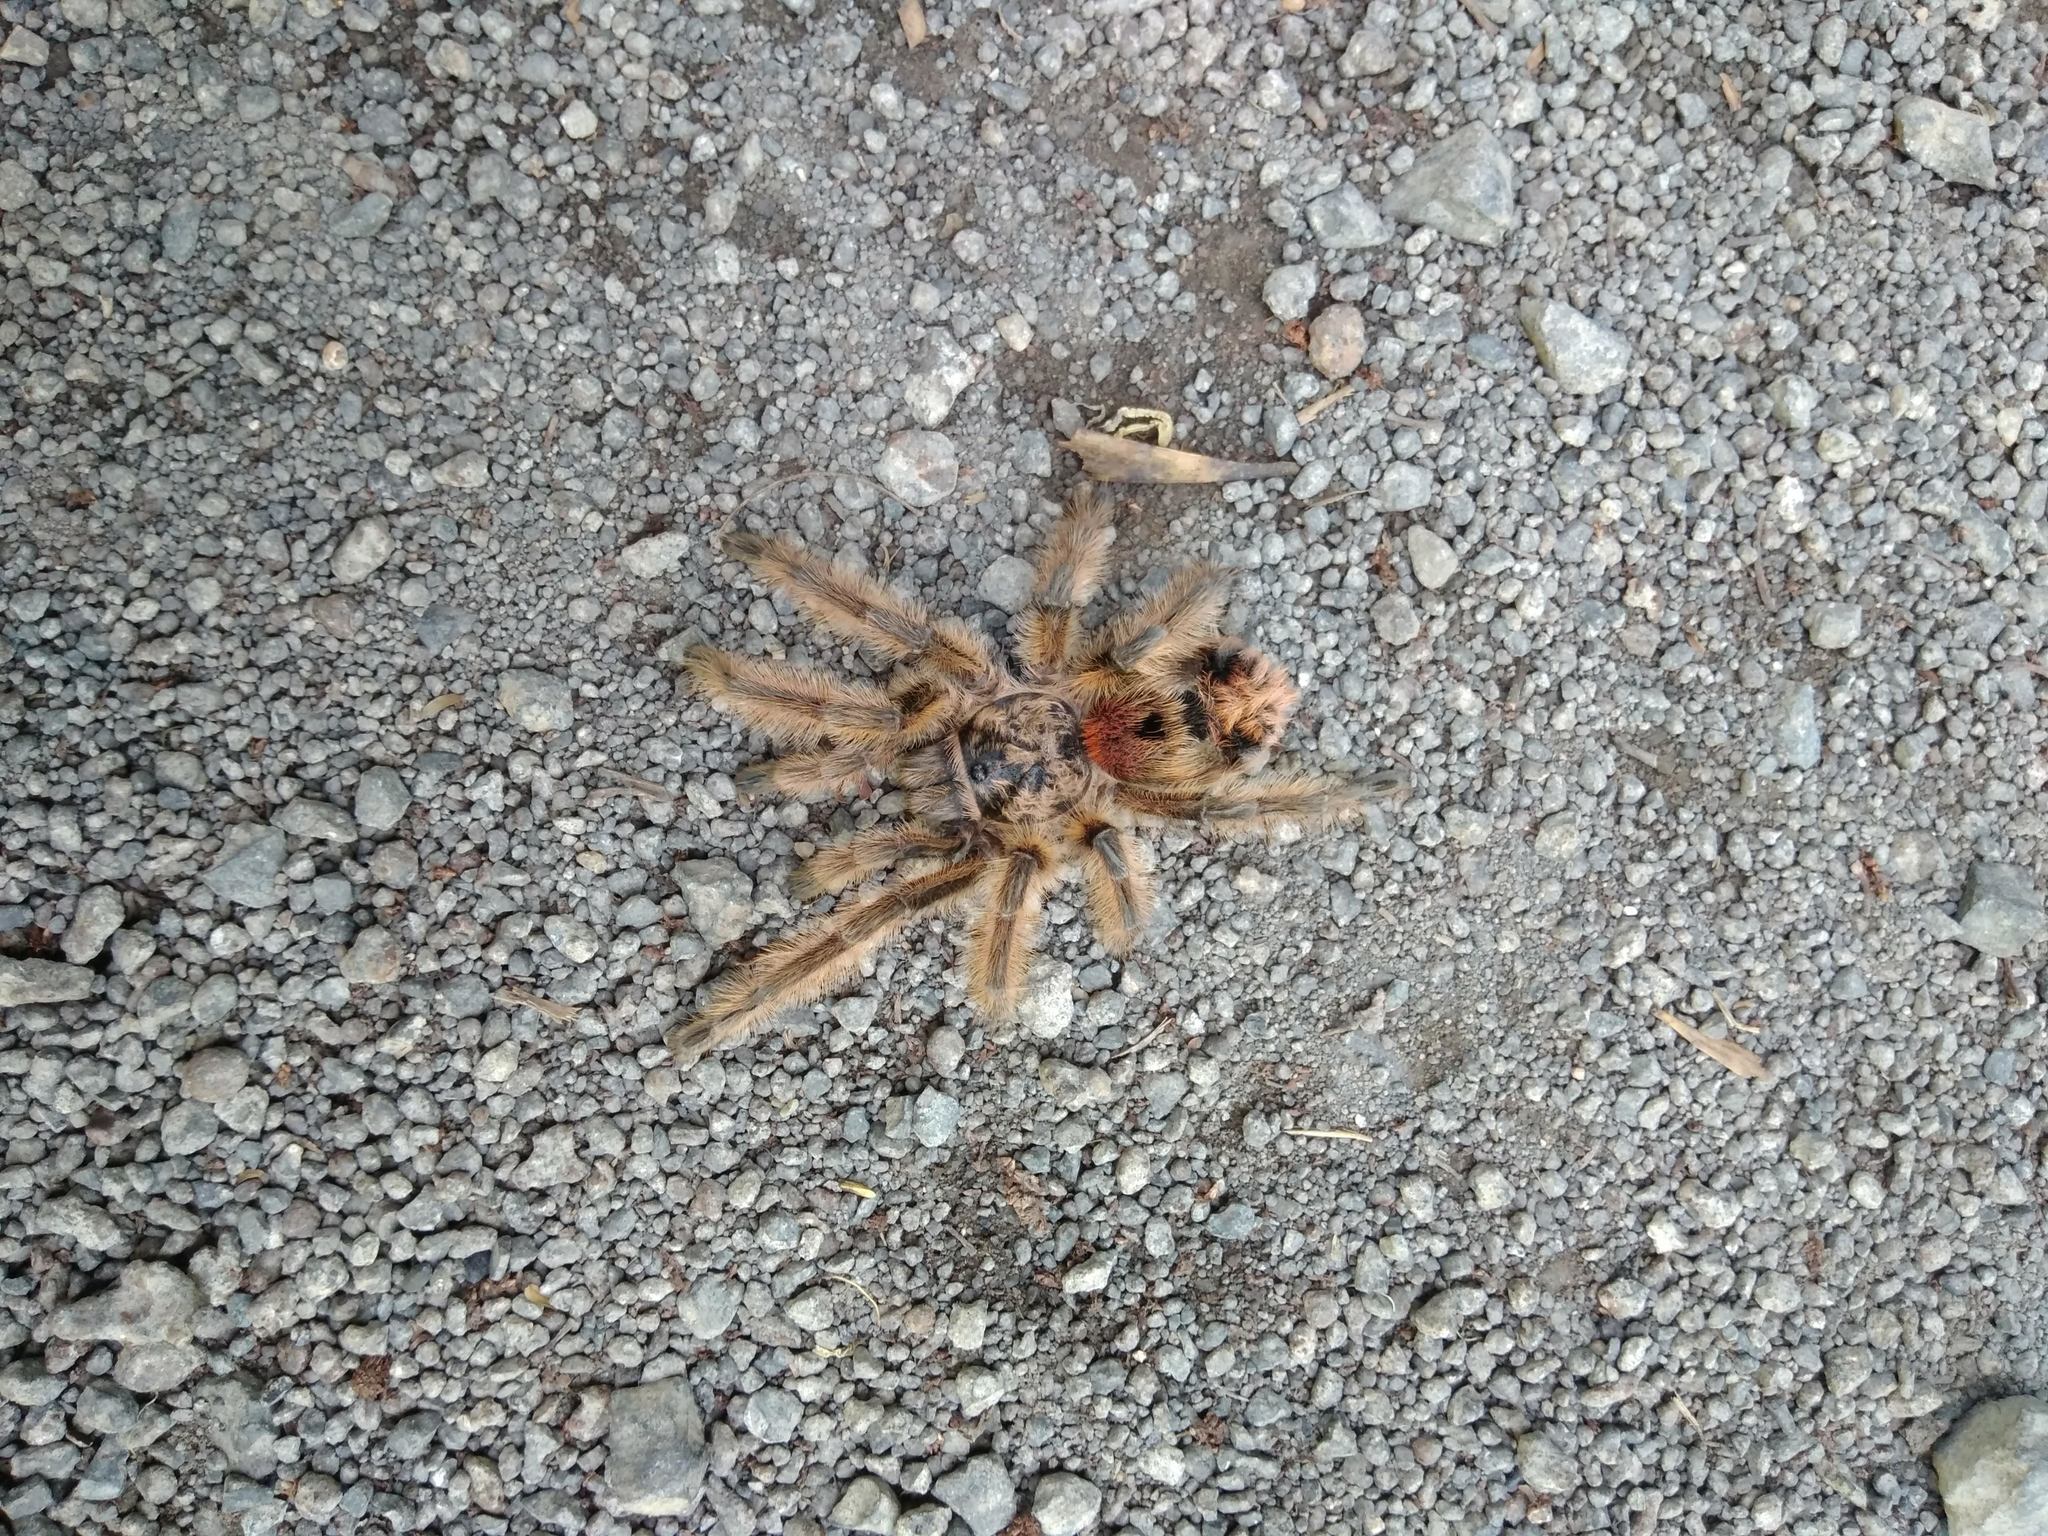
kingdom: Animalia
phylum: Arthropoda
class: Arachnida
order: Araneae
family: Theraphosidae
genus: Phrixotrichus
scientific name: Phrixotrichus vulpinus
